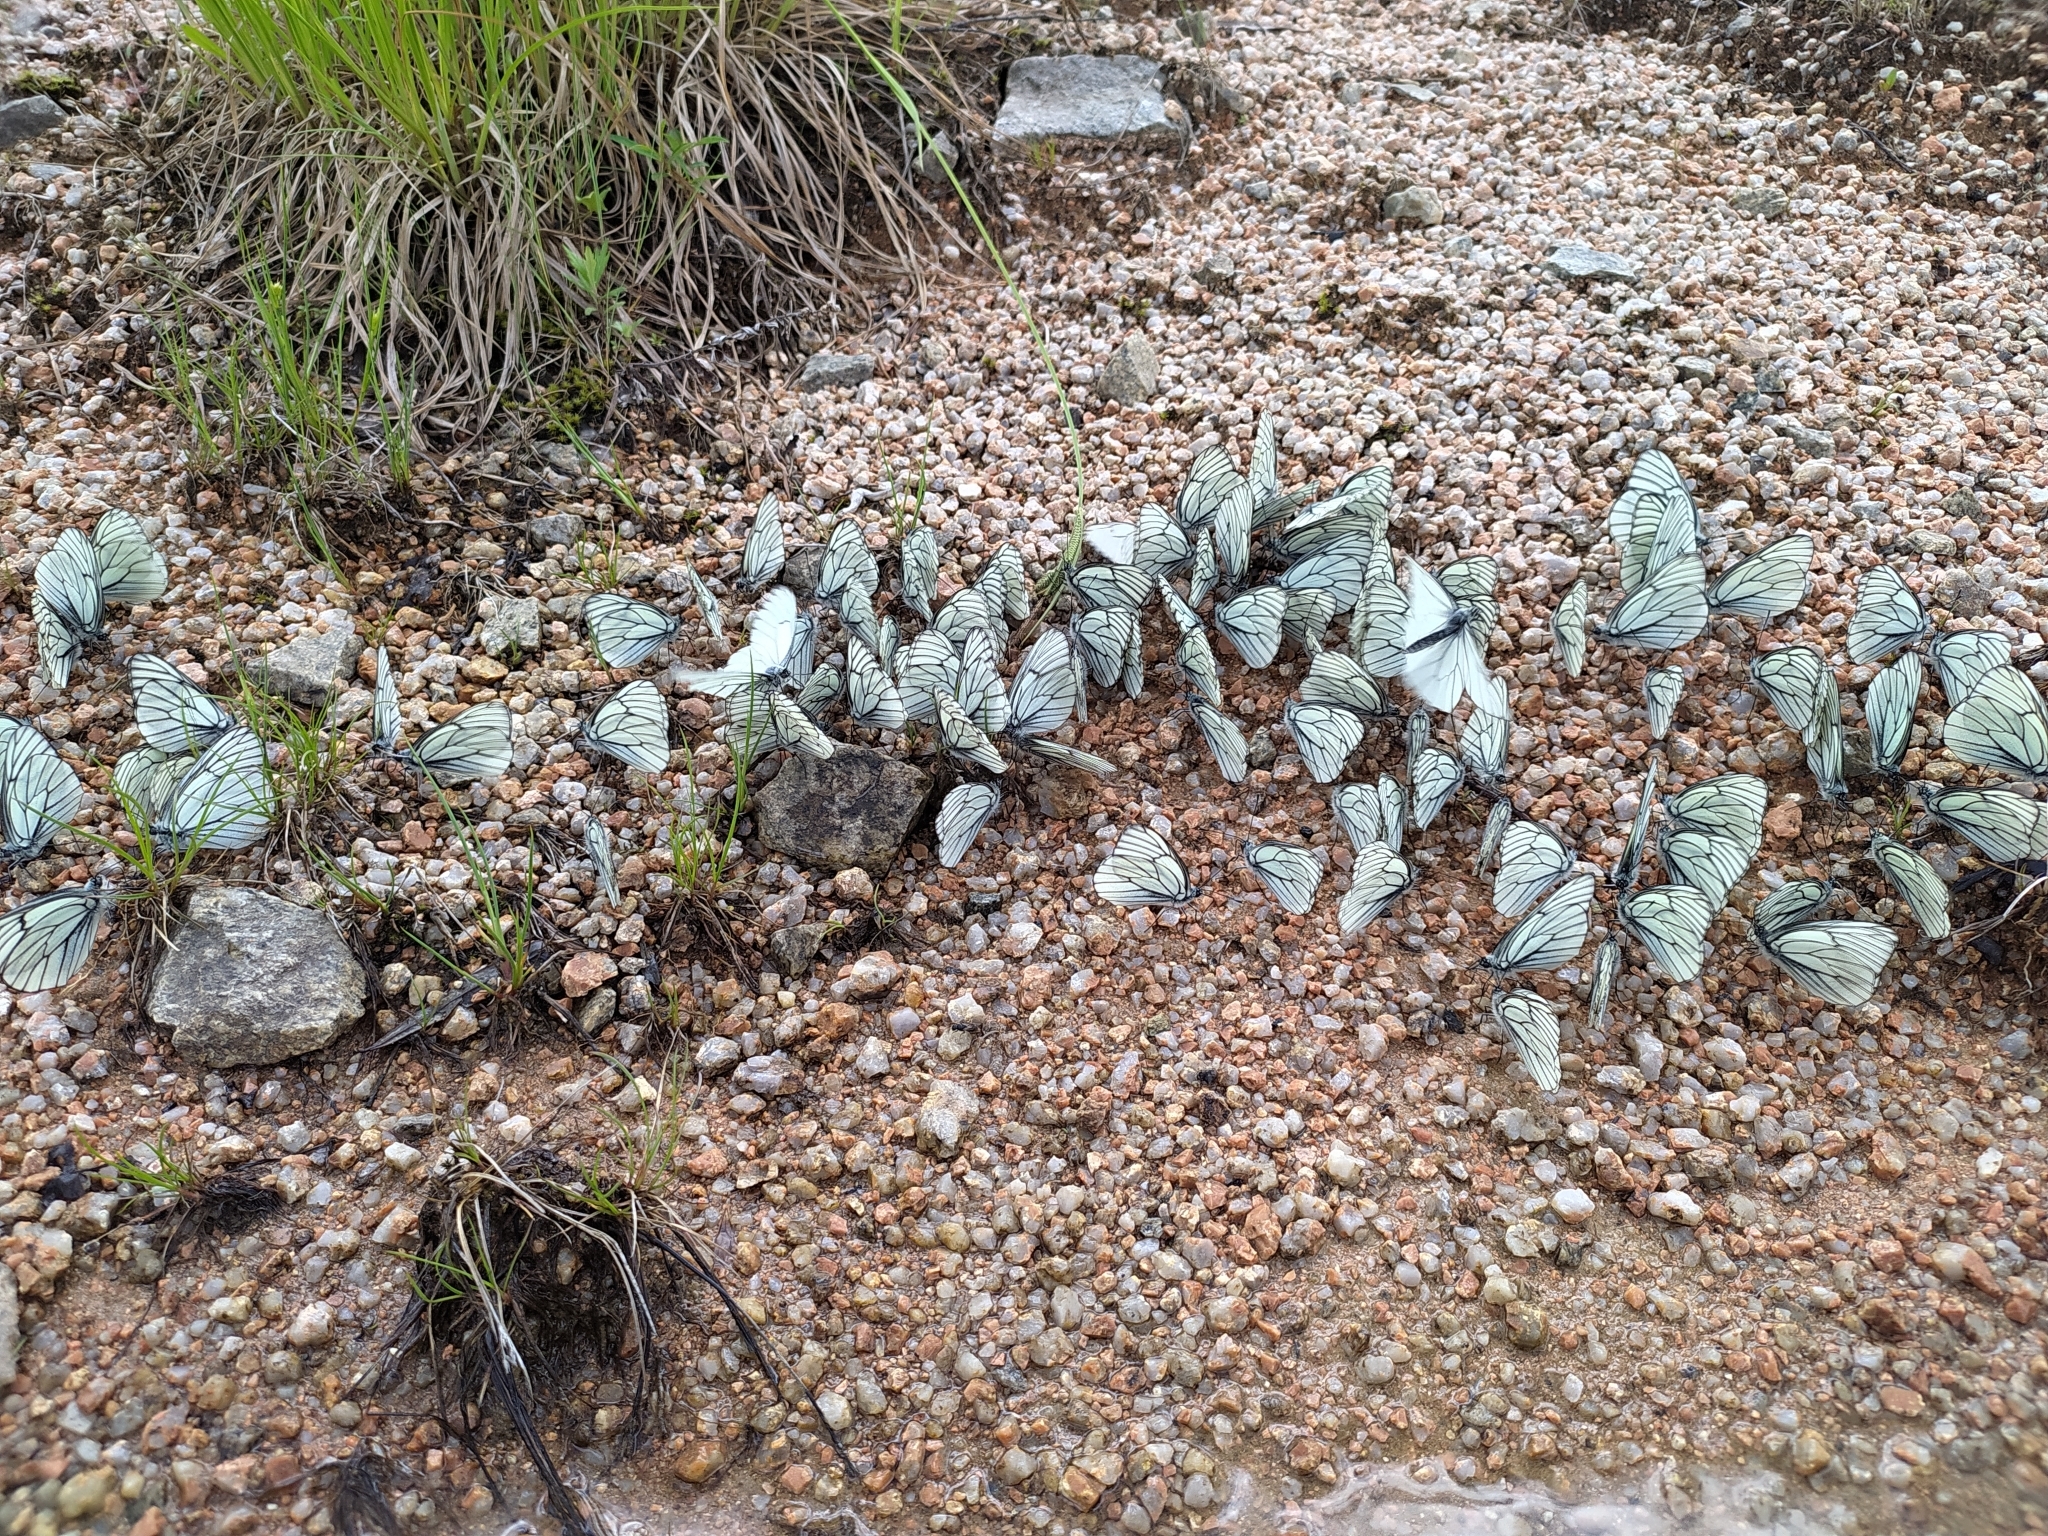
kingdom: Animalia
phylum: Arthropoda
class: Insecta
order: Lepidoptera
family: Pieridae
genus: Aporia
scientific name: Aporia crataegi
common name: Black-veined white
